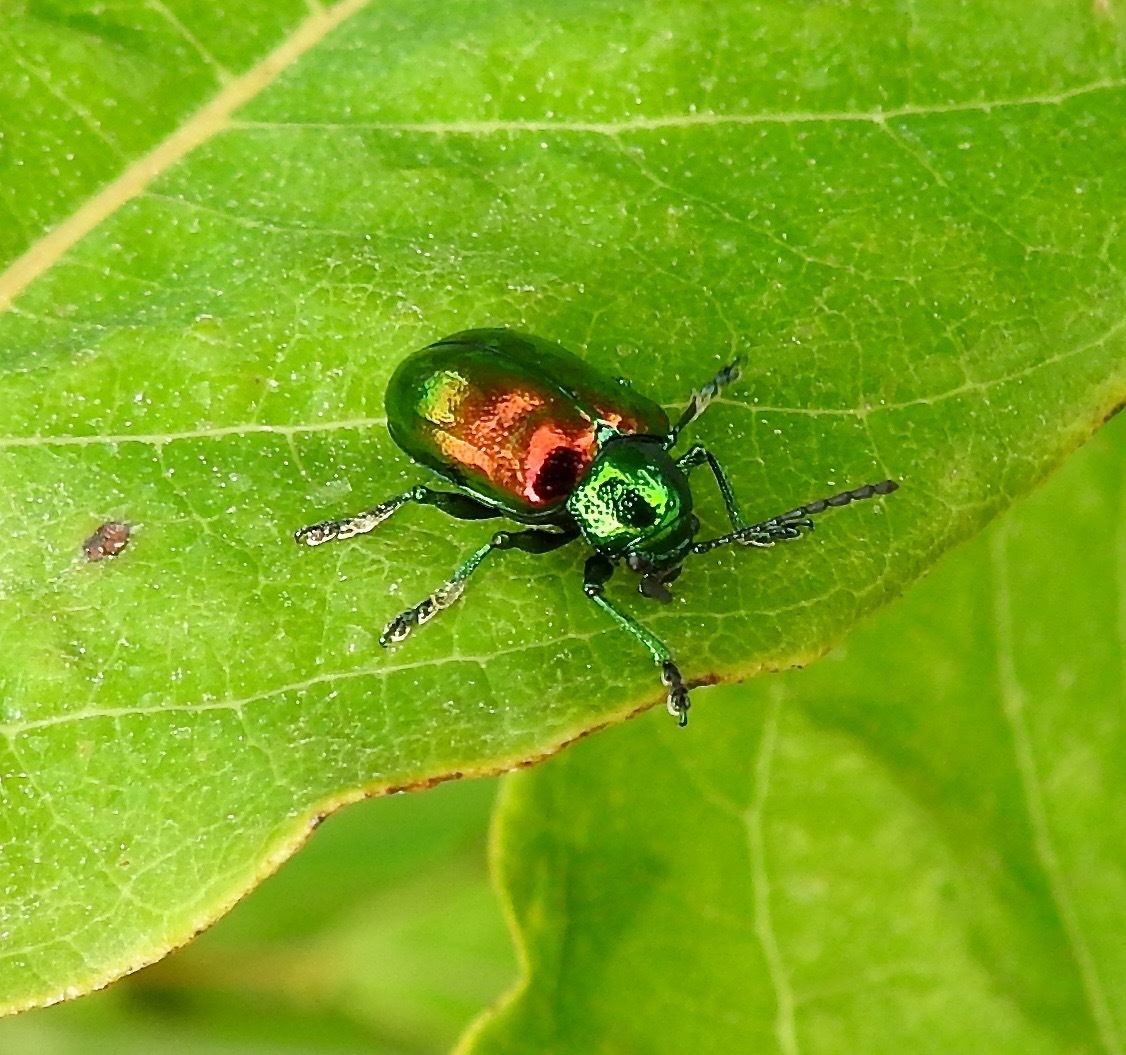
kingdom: Animalia
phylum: Arthropoda
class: Insecta
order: Coleoptera
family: Chrysomelidae
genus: Chrysochus
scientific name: Chrysochus auratus
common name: Dogbane leaf beetle
